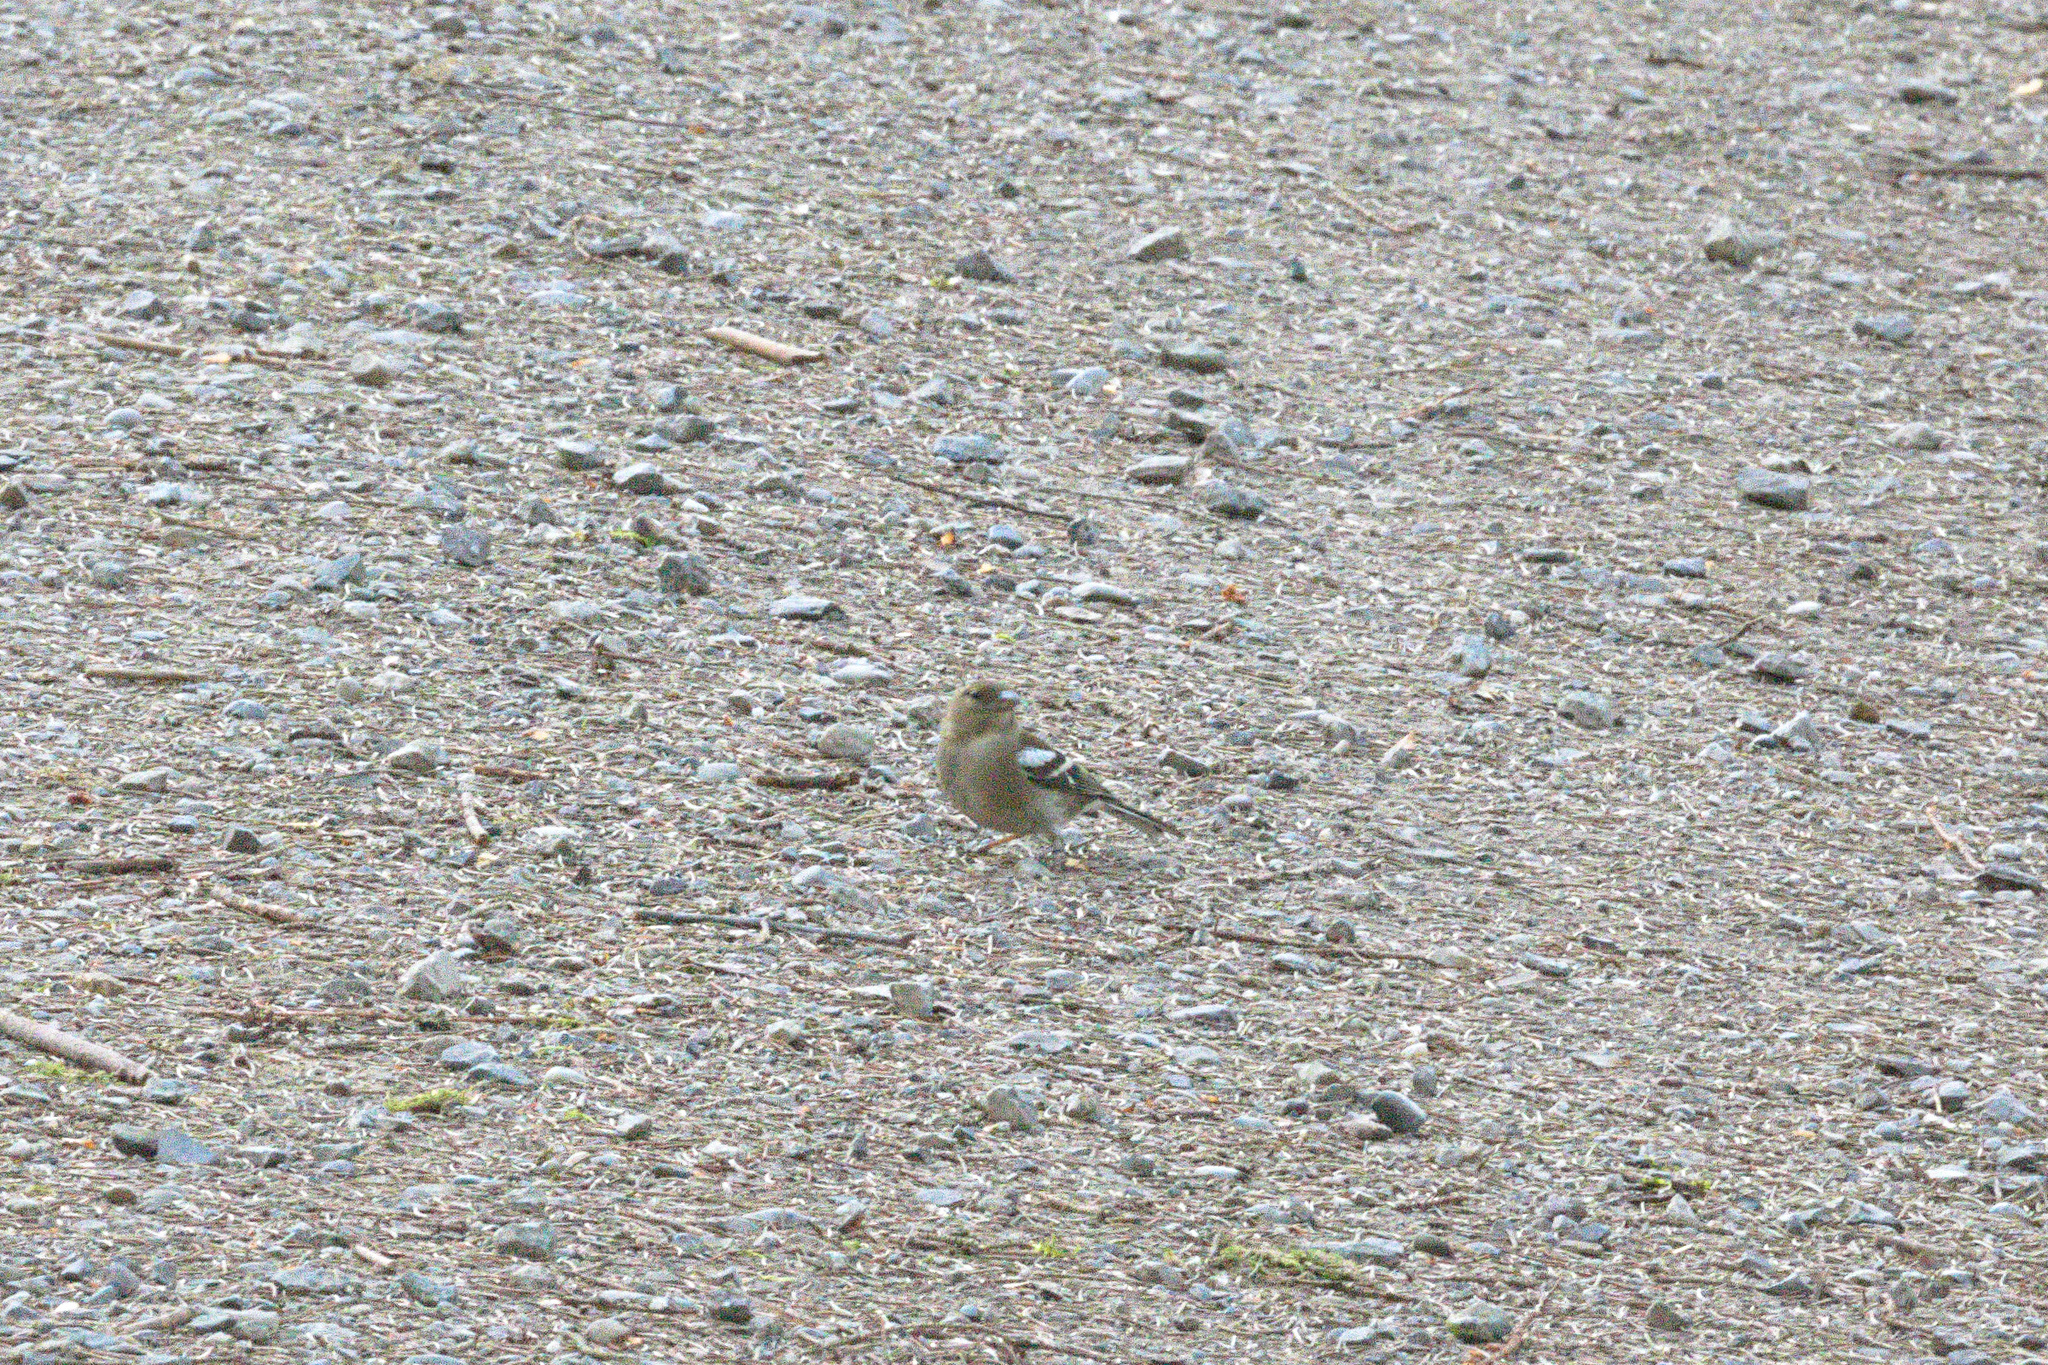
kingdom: Animalia
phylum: Chordata
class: Aves
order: Passeriformes
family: Fringillidae
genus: Fringilla
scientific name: Fringilla coelebs
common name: Common chaffinch
